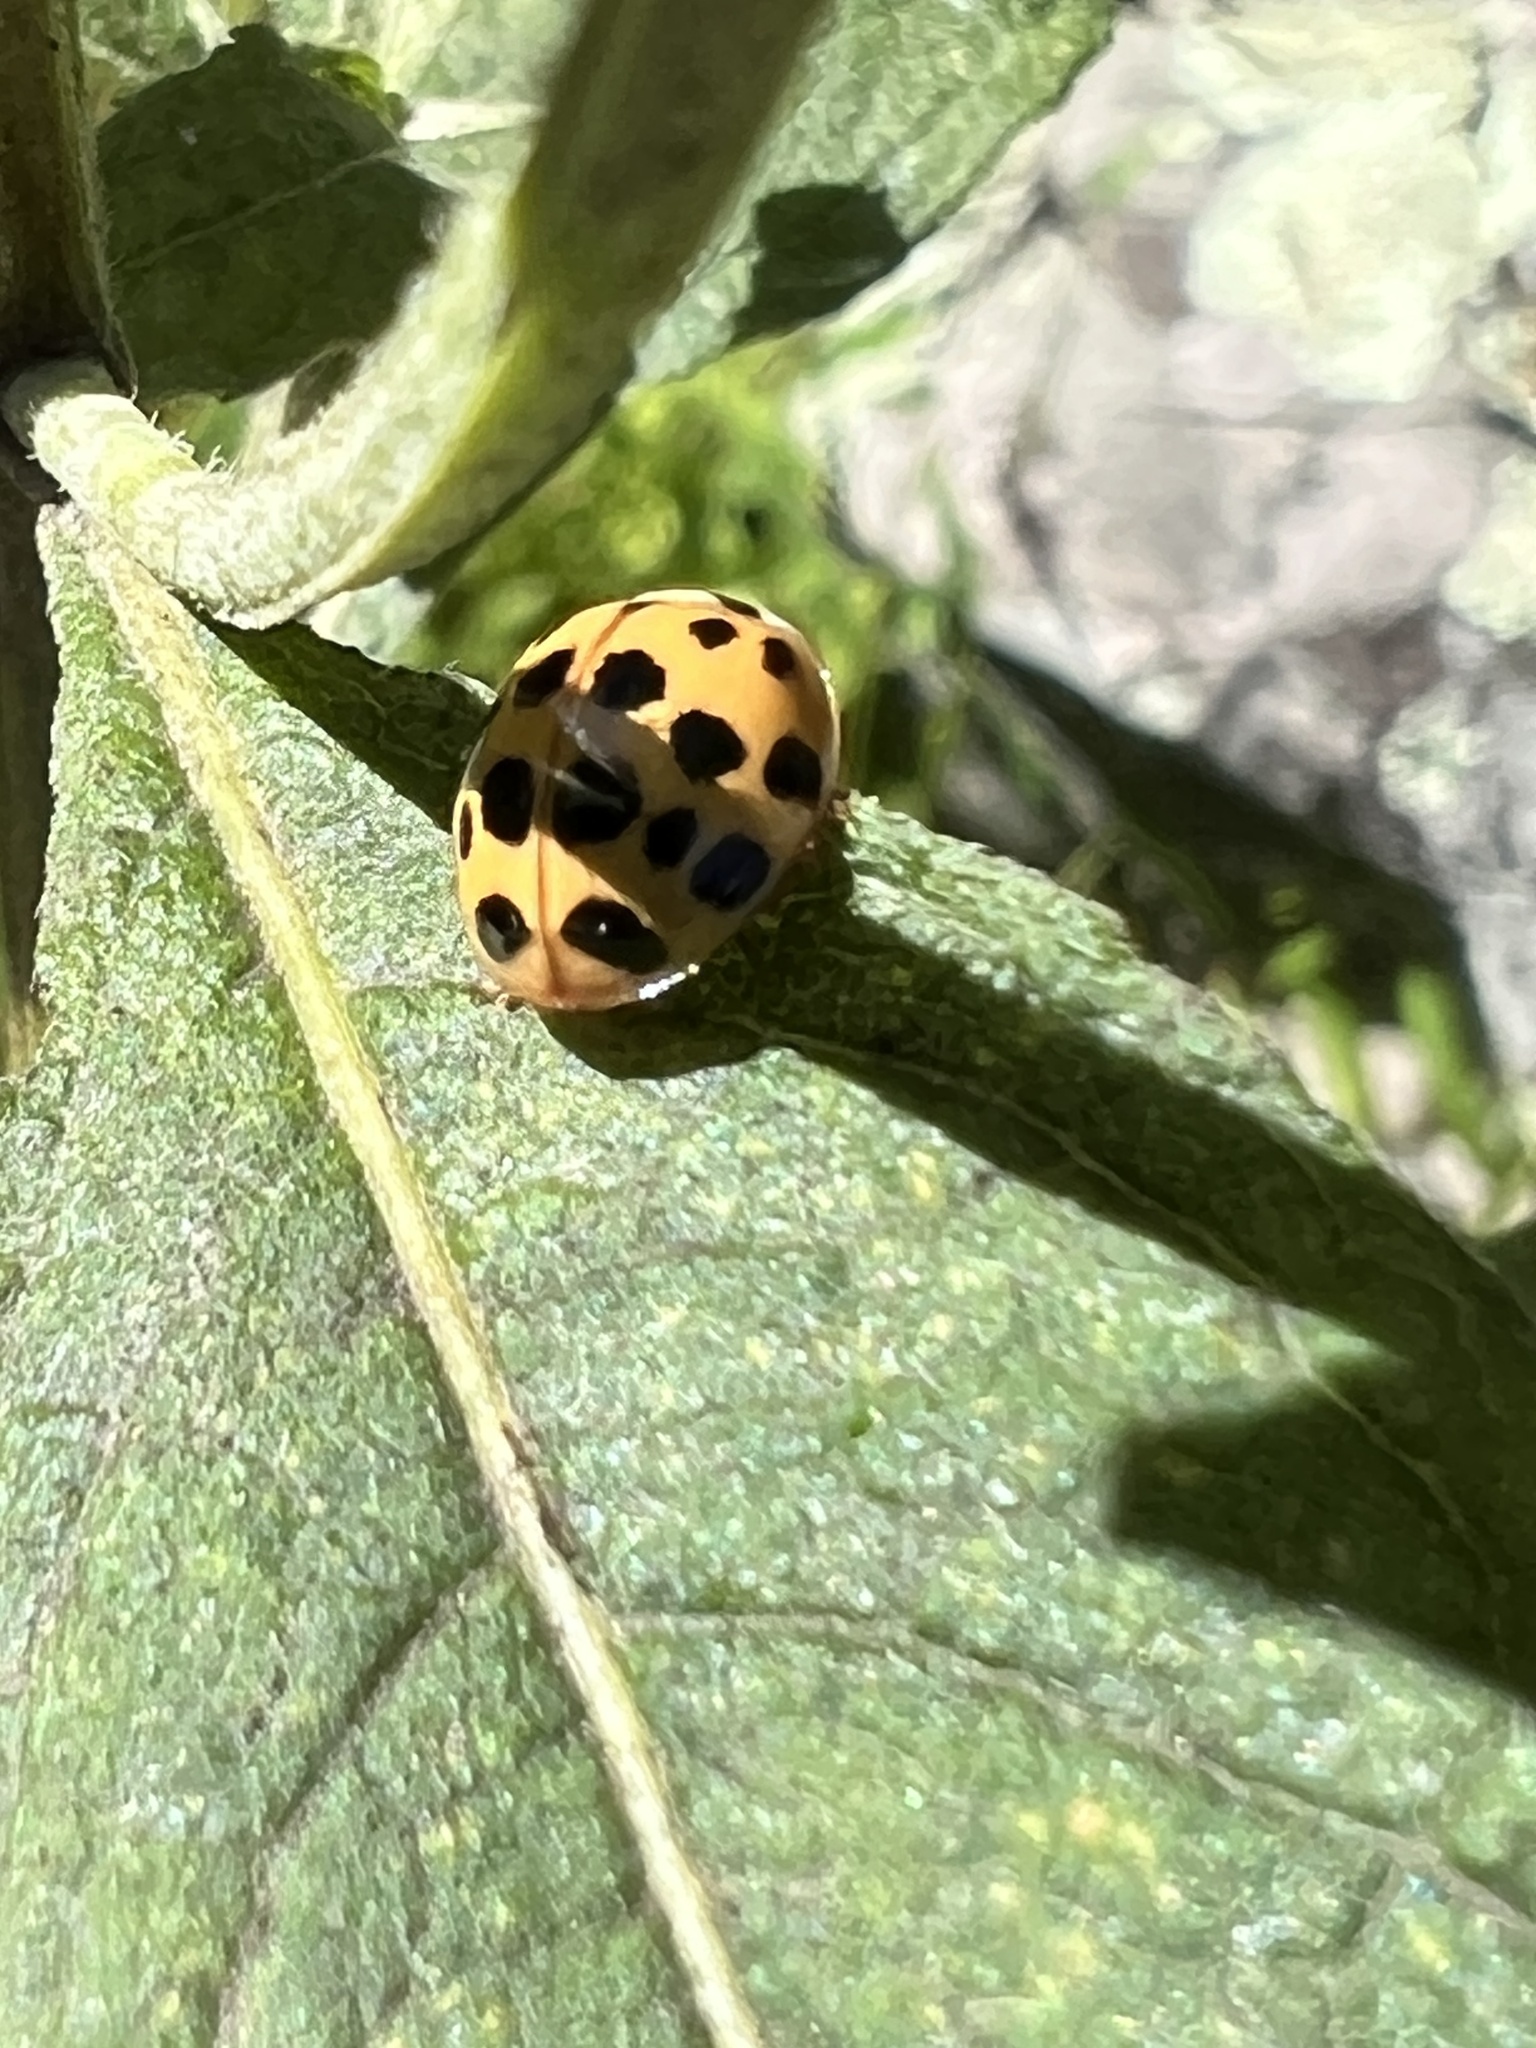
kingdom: Animalia
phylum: Arthropoda
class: Insecta
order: Coleoptera
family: Coccinellidae
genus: Harmonia
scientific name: Harmonia axyridis
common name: Harlequin ladybird
